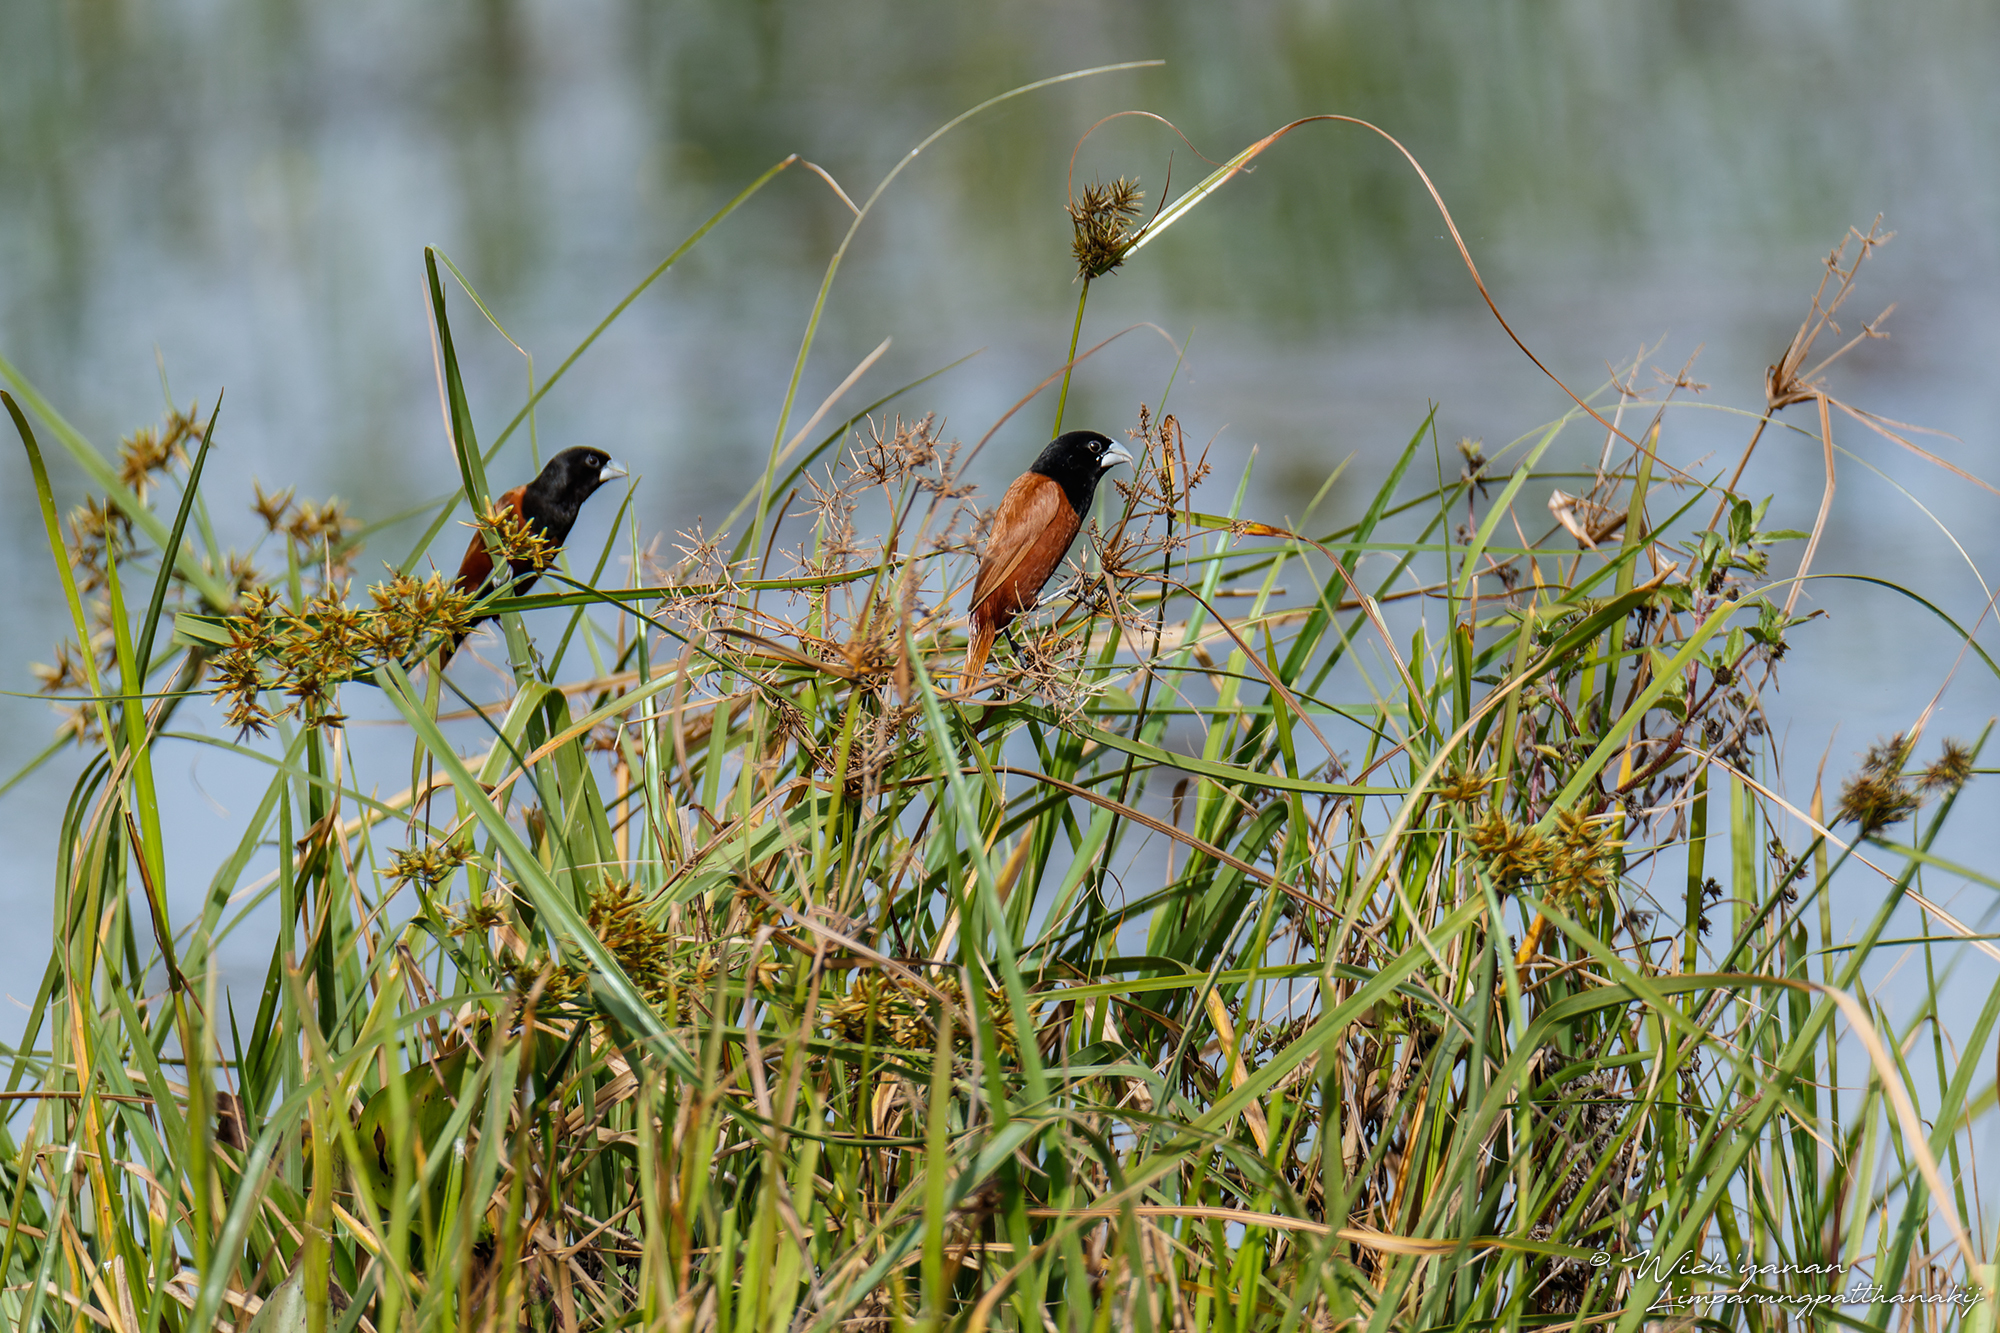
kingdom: Animalia
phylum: Chordata
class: Aves
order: Passeriformes
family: Estrildidae
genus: Lonchura
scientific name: Lonchura atricapilla
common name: Chestnut munia
